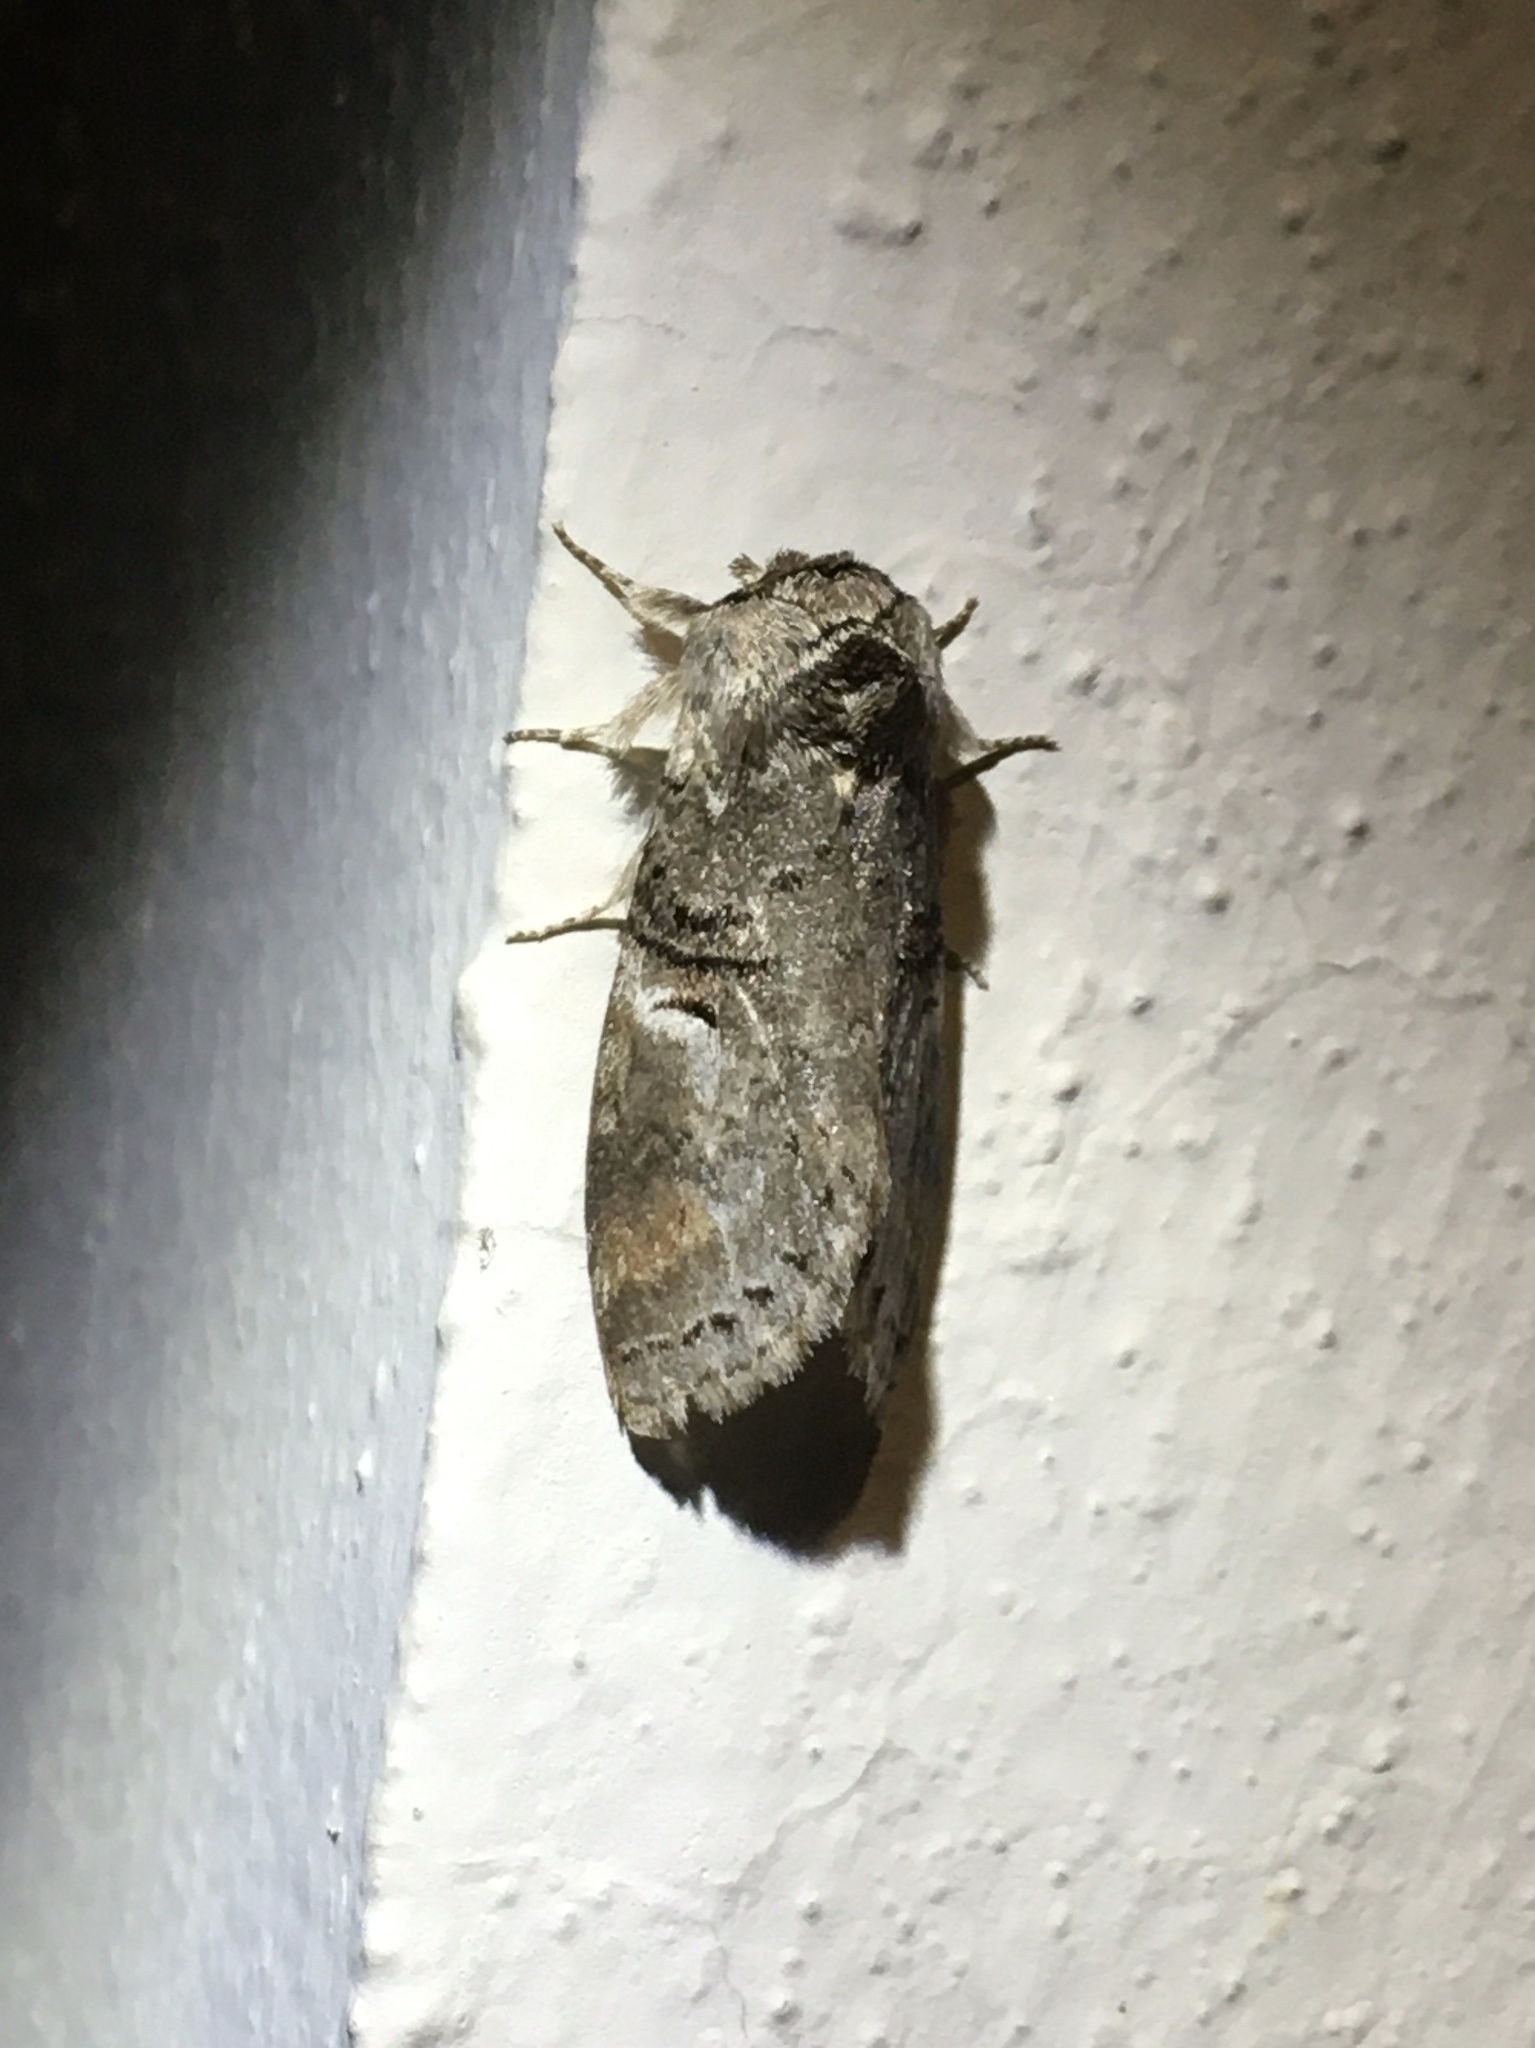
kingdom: Animalia
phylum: Arthropoda
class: Insecta
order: Lepidoptera
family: Notodontidae
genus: Ellida
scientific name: Ellida caniplaga
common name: Linden prominent
